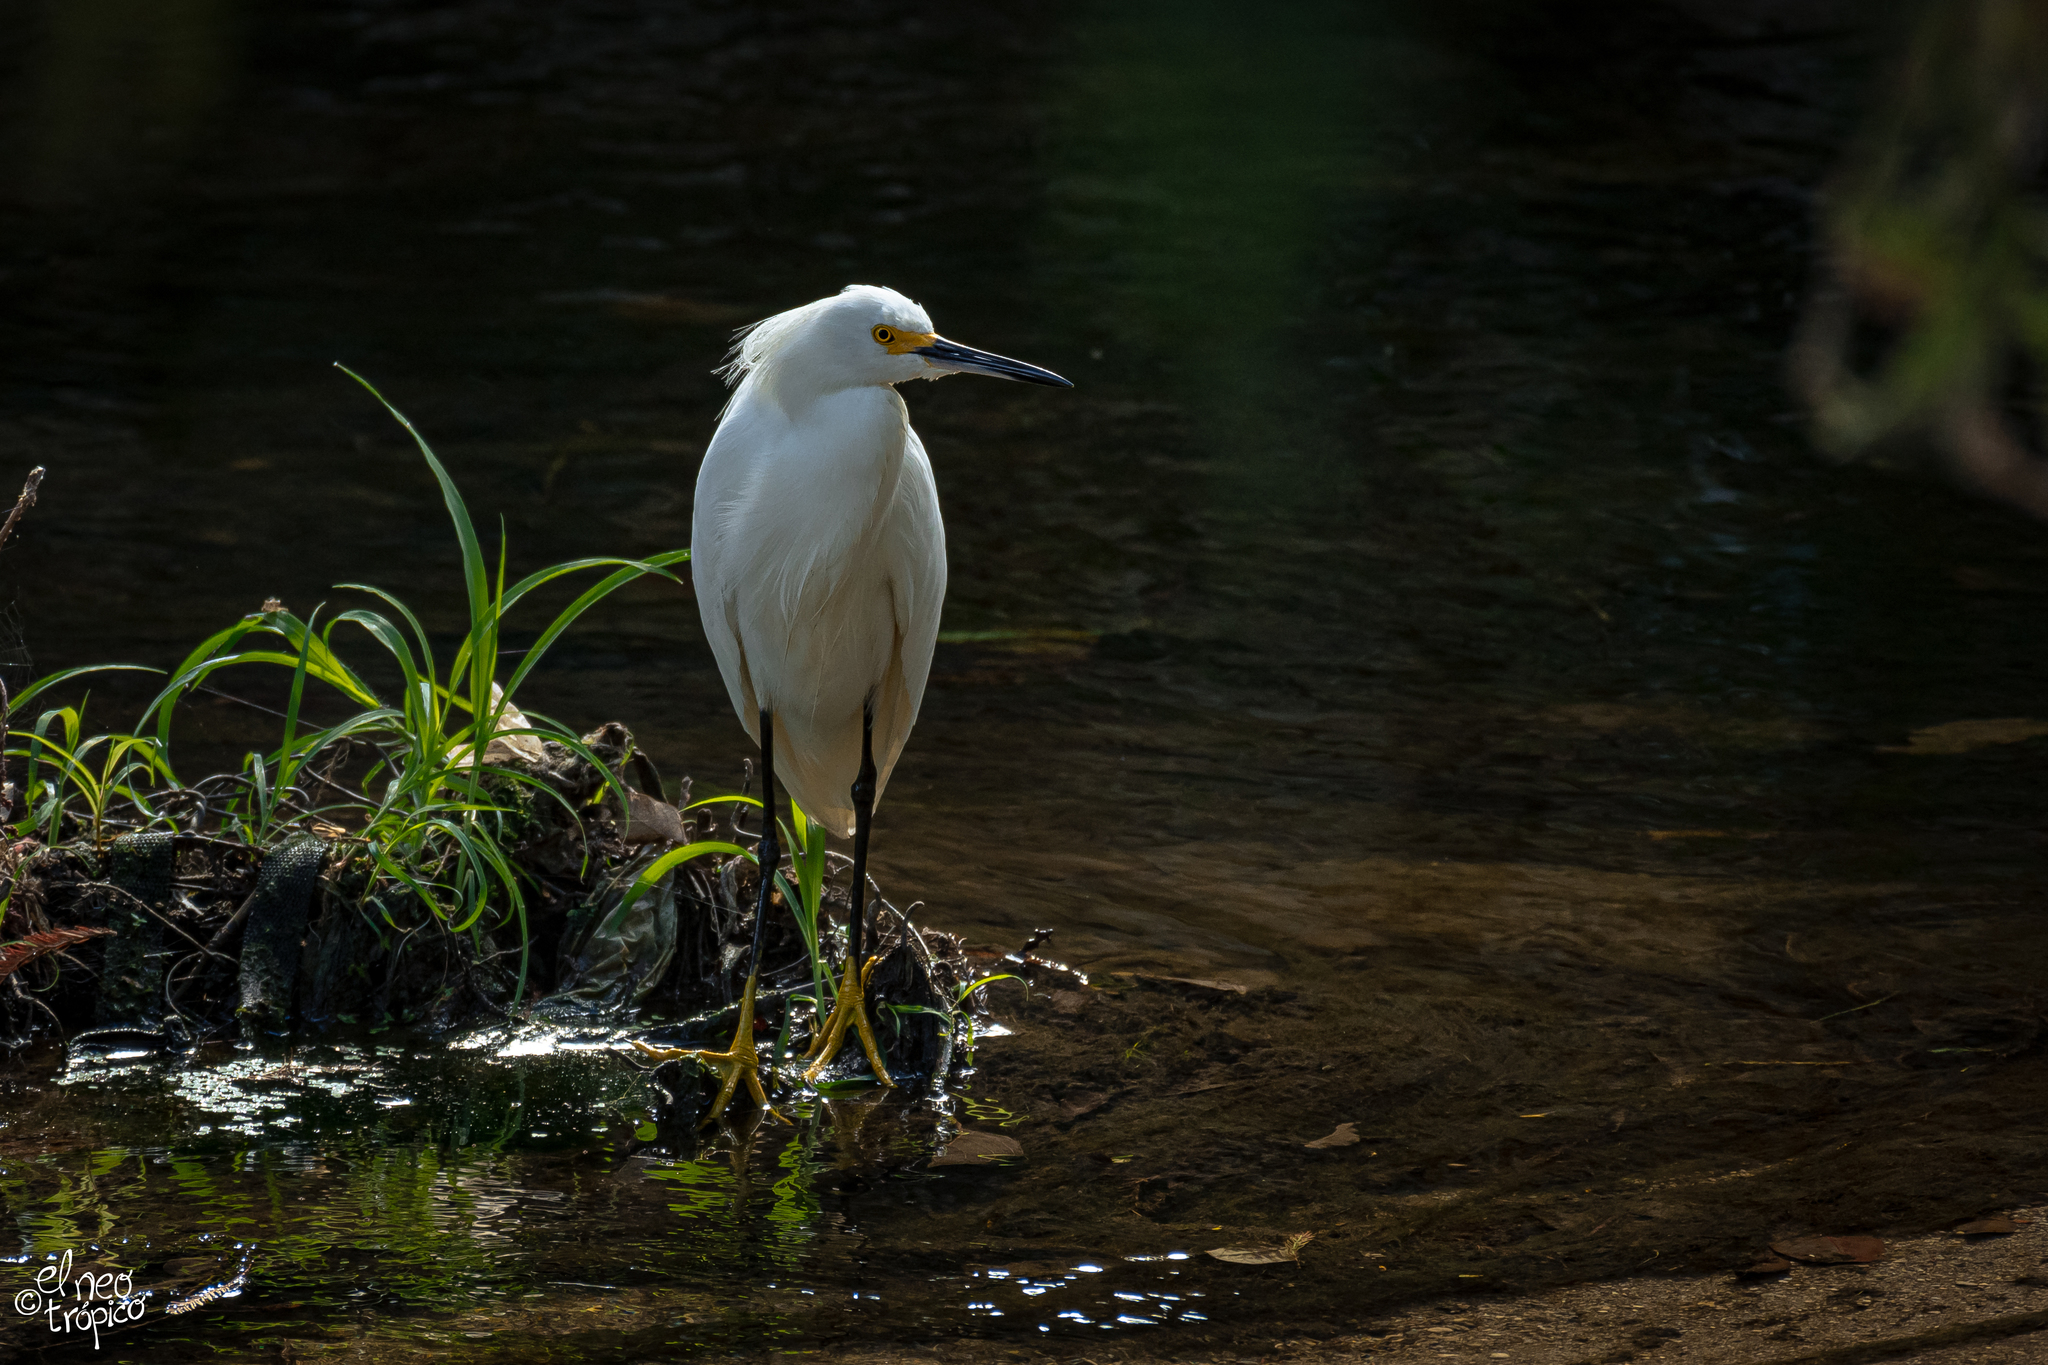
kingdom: Animalia
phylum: Chordata
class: Aves
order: Pelecaniformes
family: Ardeidae
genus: Egretta
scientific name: Egretta thula
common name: Snowy egret
